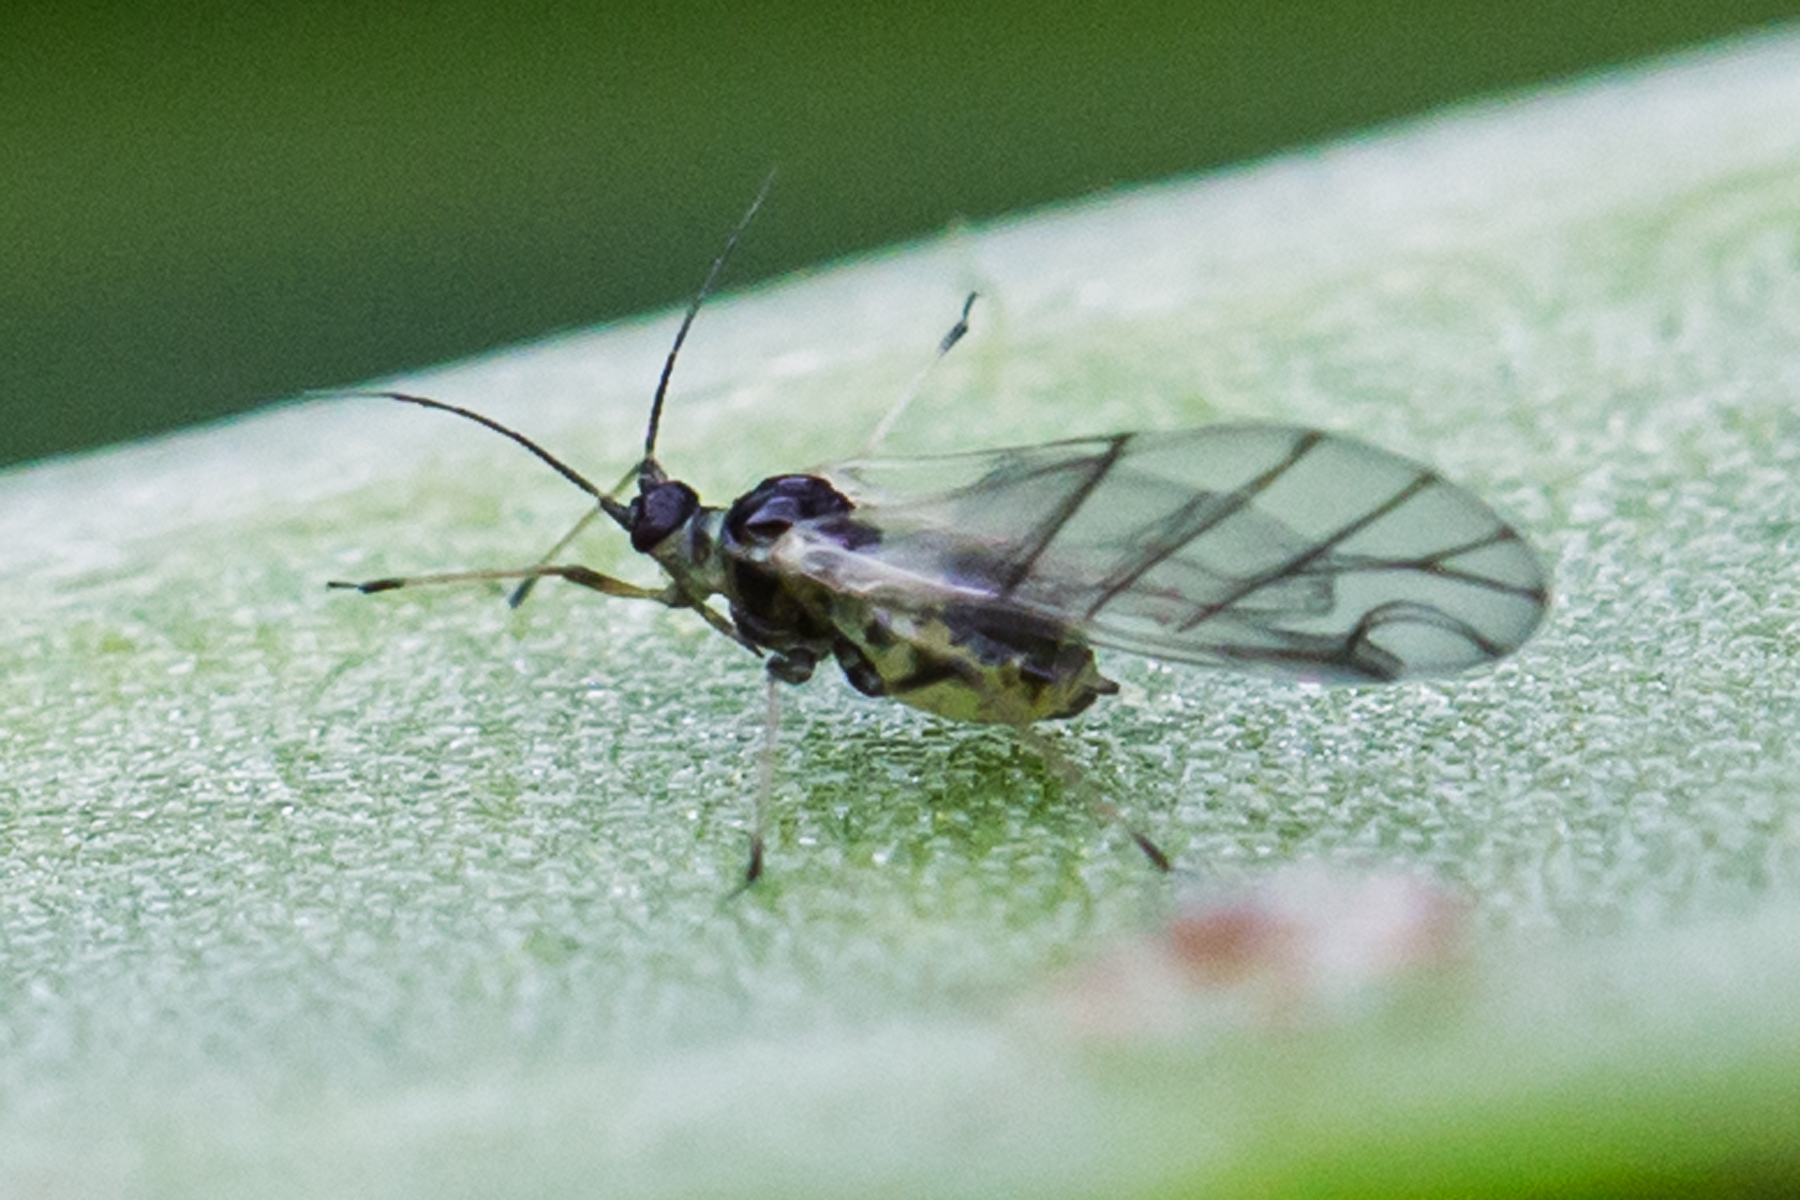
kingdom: Animalia
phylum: Arthropoda
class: Insecta
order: Hemiptera
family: Aphididae
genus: Hyalopterus
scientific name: Hyalopterus pruni
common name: Mealy plum aphid
